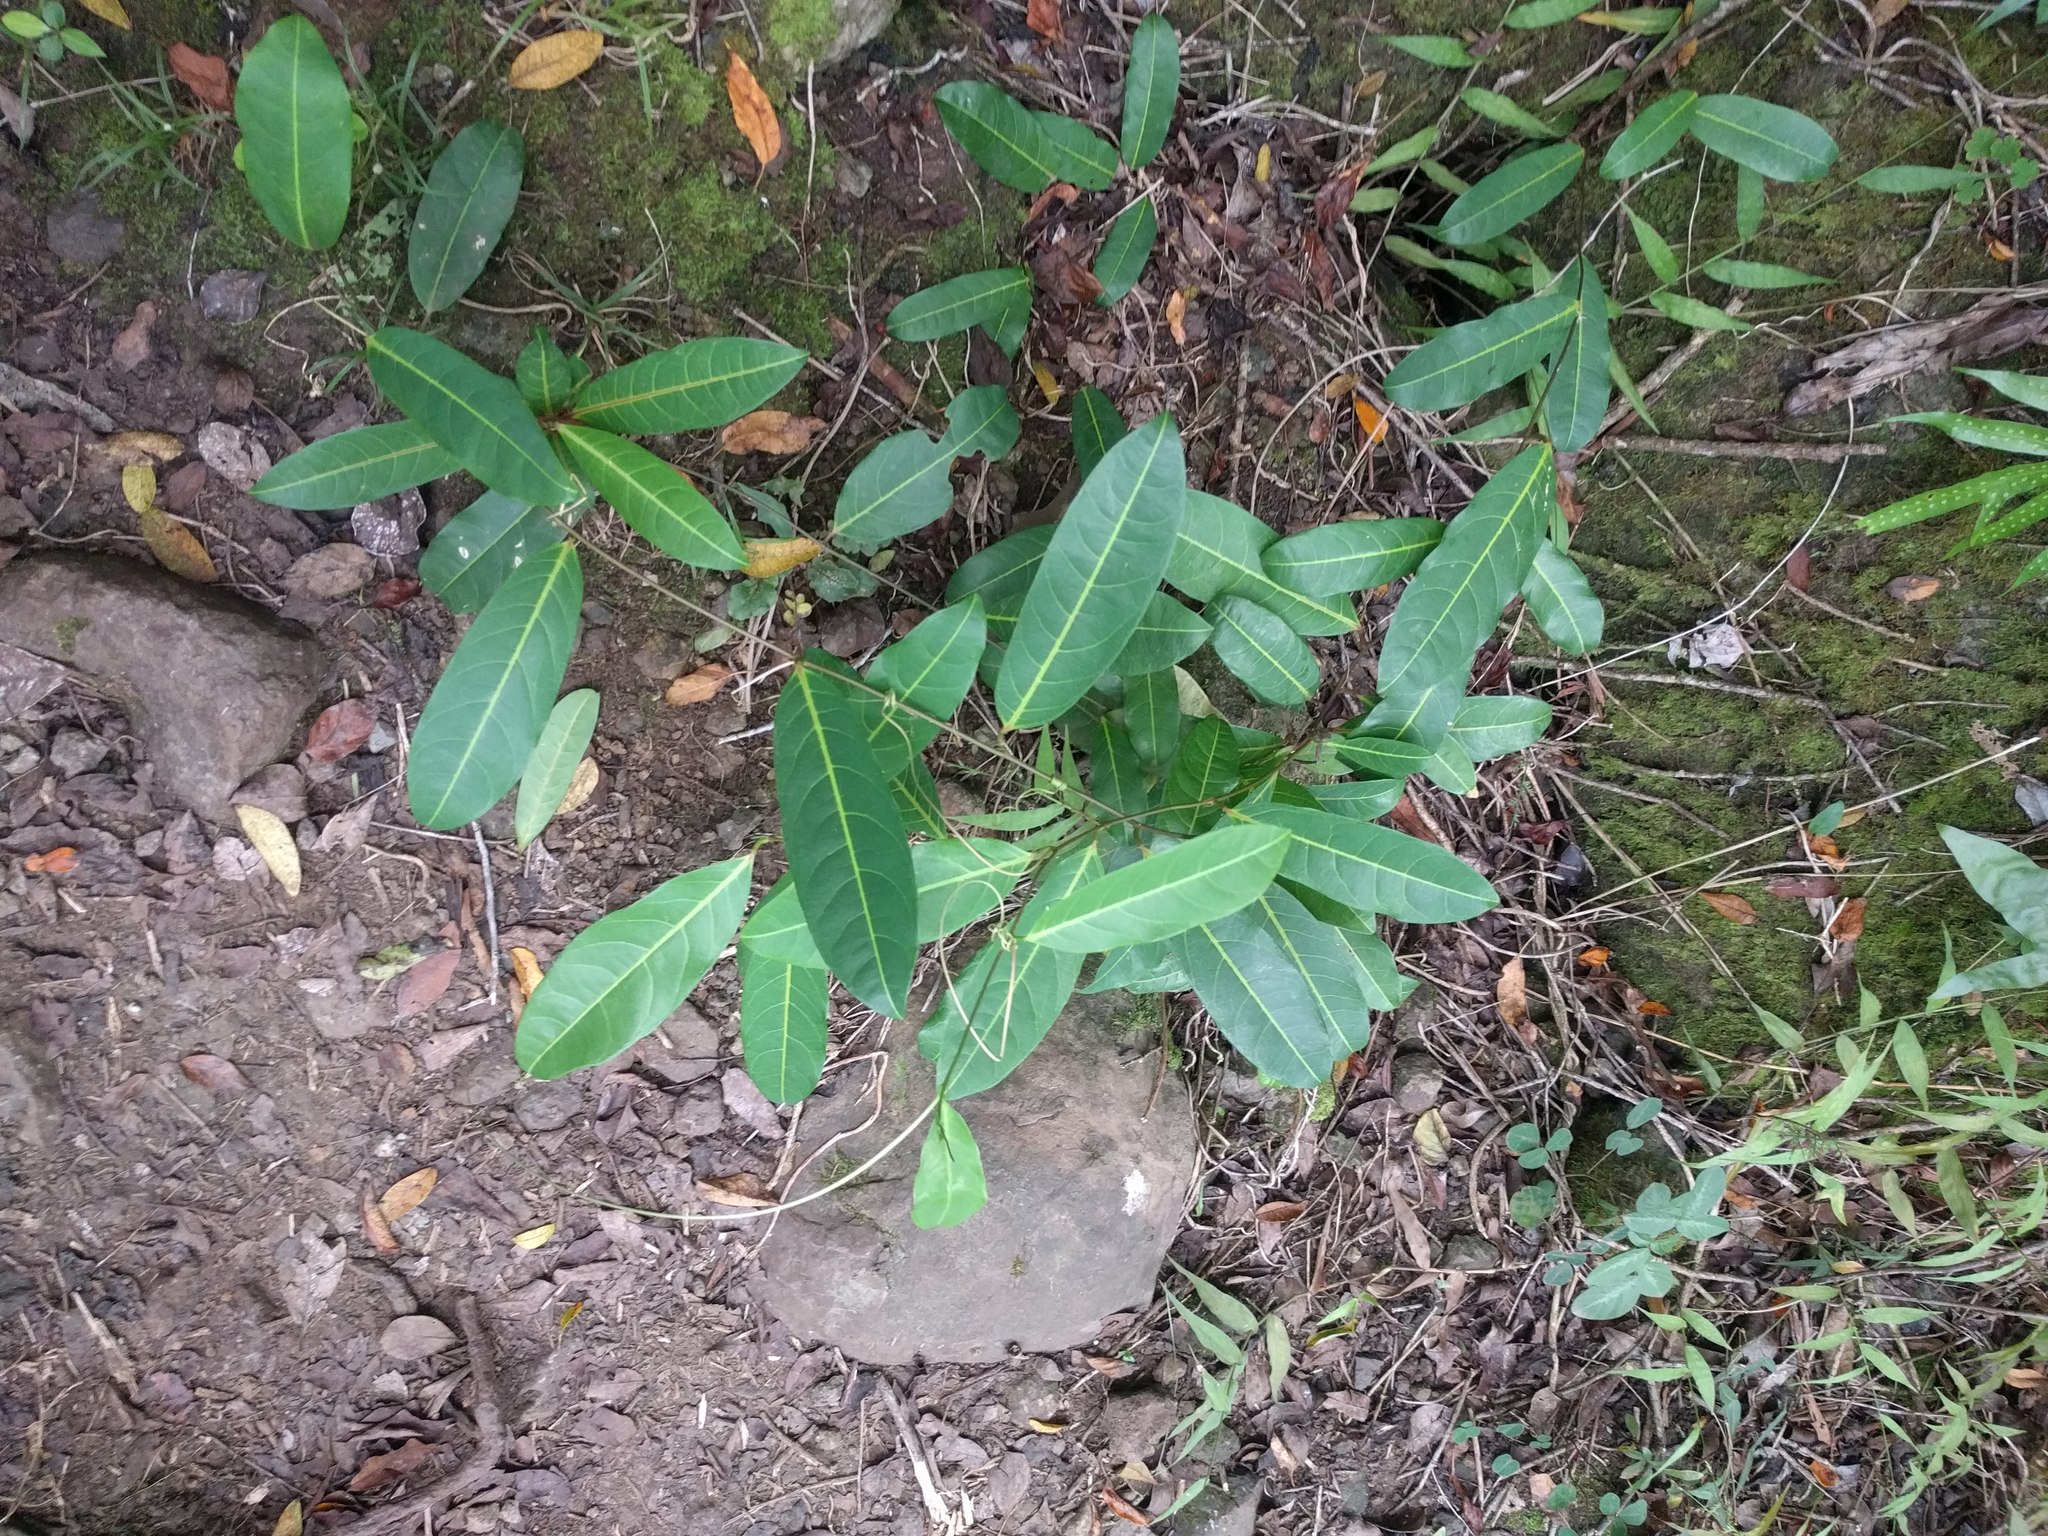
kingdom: Plantae
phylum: Tracheophyta
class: Magnoliopsida
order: Malpighiales
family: Passifloraceae
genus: Passiflora
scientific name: Passiflora laurifolia
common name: Bell apple
